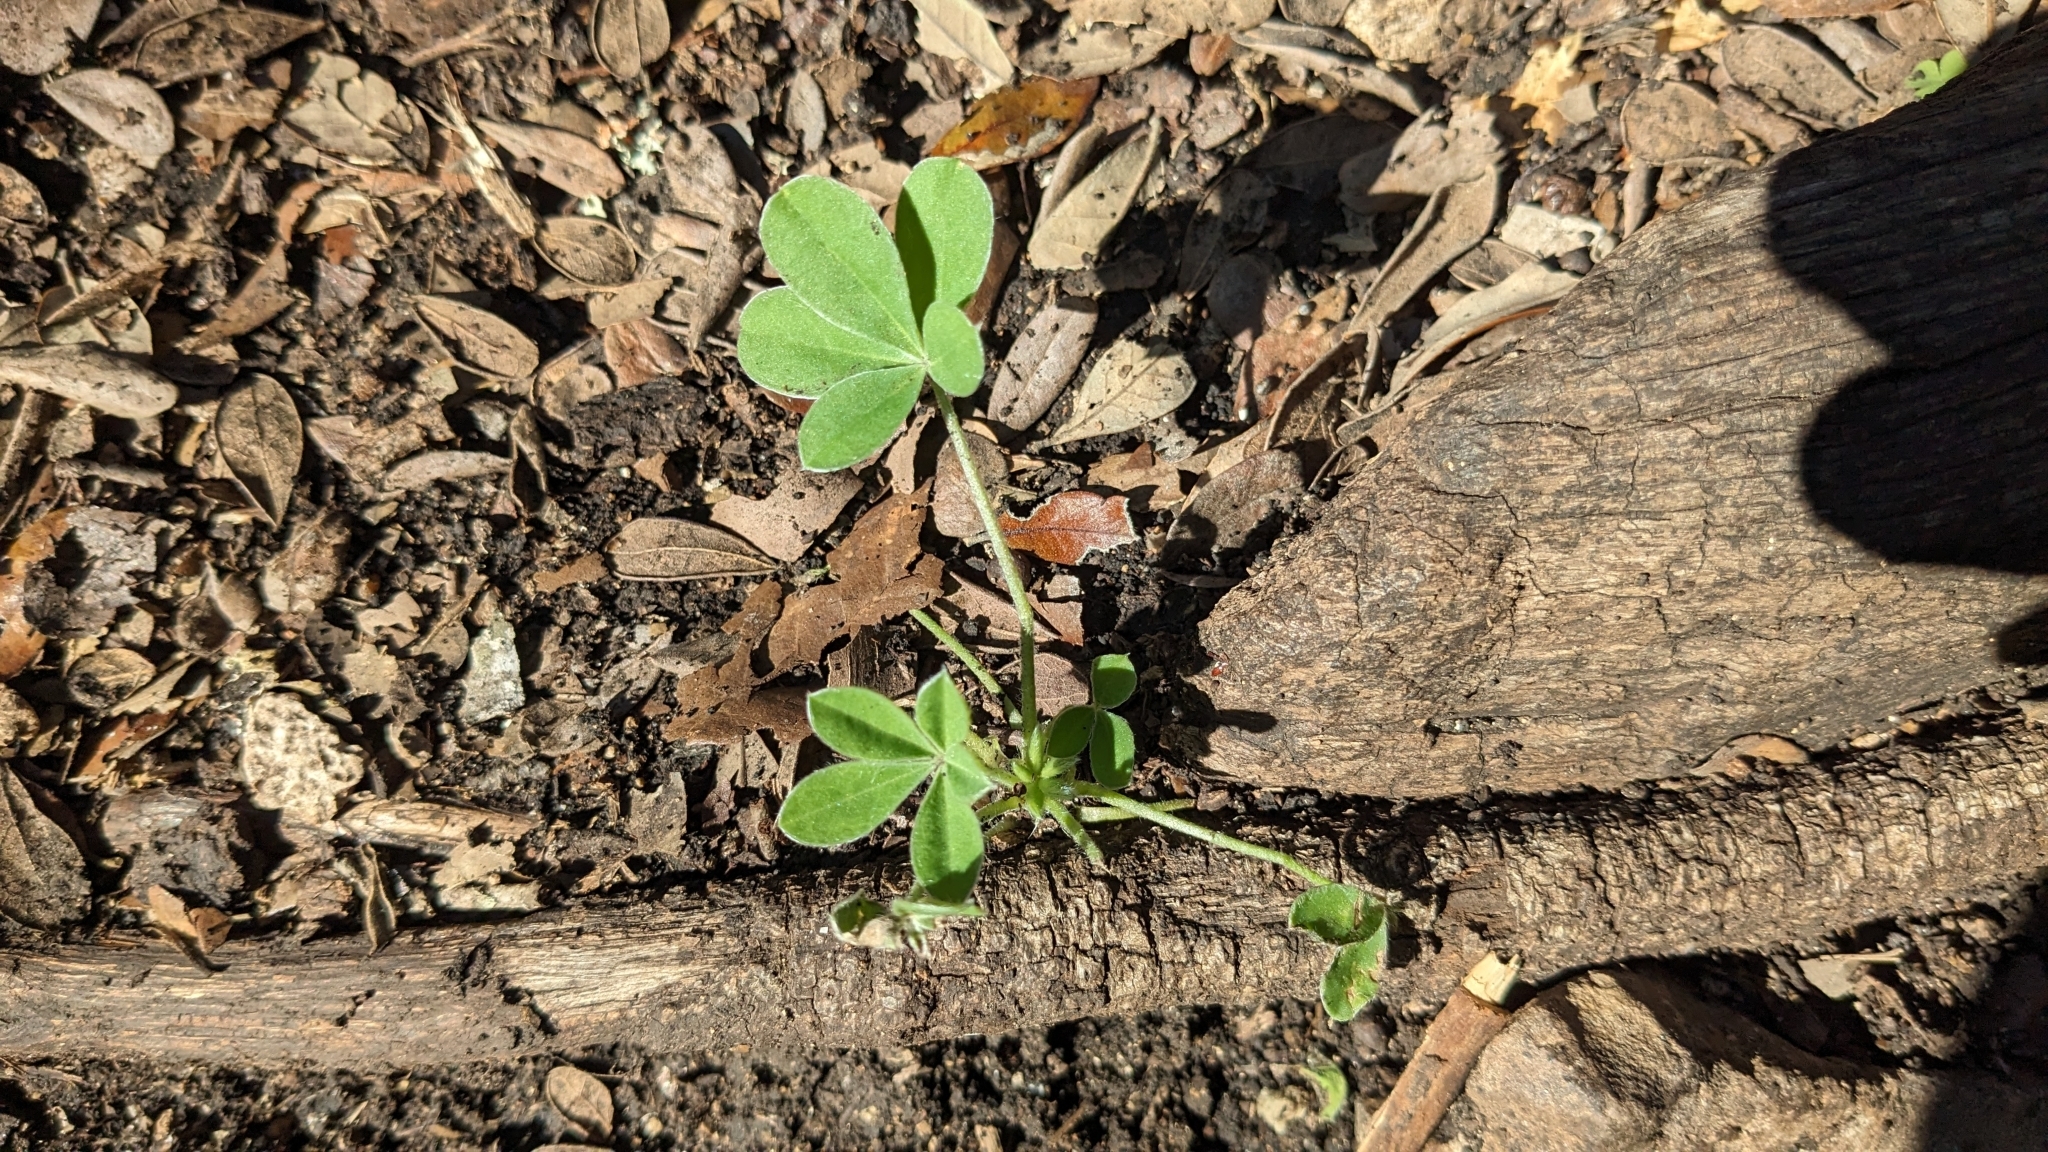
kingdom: Plantae
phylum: Tracheophyta
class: Magnoliopsida
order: Fabales
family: Fabaceae
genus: Lupinus
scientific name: Lupinus texensis
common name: Texas bluebonnet
